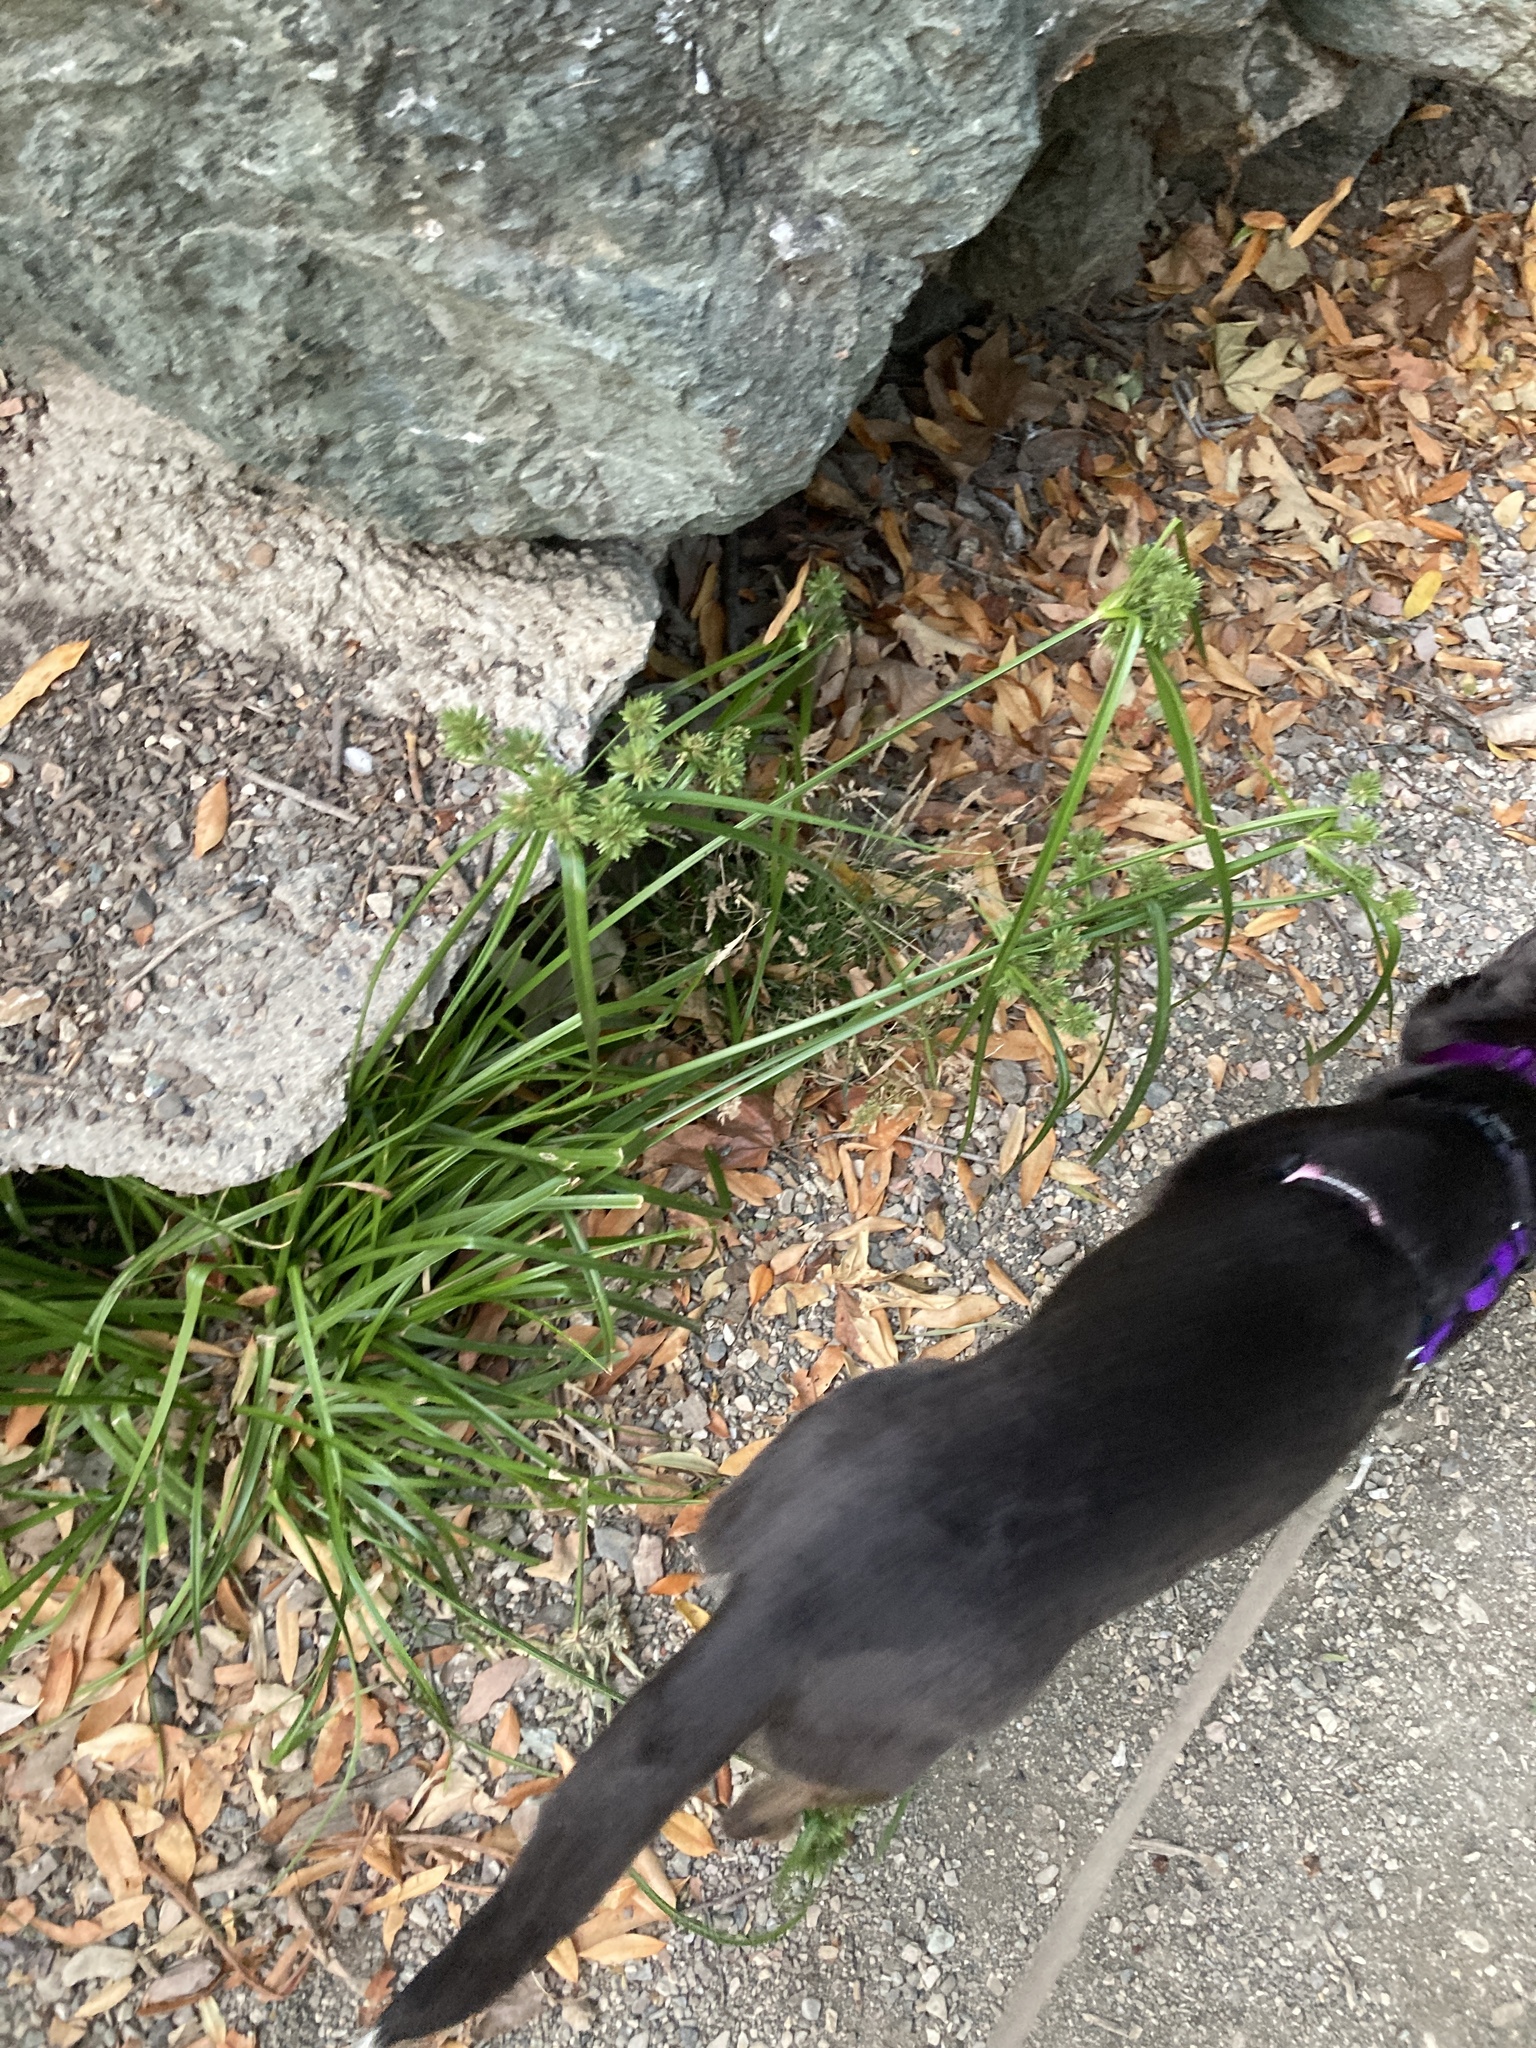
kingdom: Plantae
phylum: Tracheophyta
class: Liliopsida
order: Poales
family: Cyperaceae
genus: Cyperus
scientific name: Cyperus eragrostis
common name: Tall flatsedge
